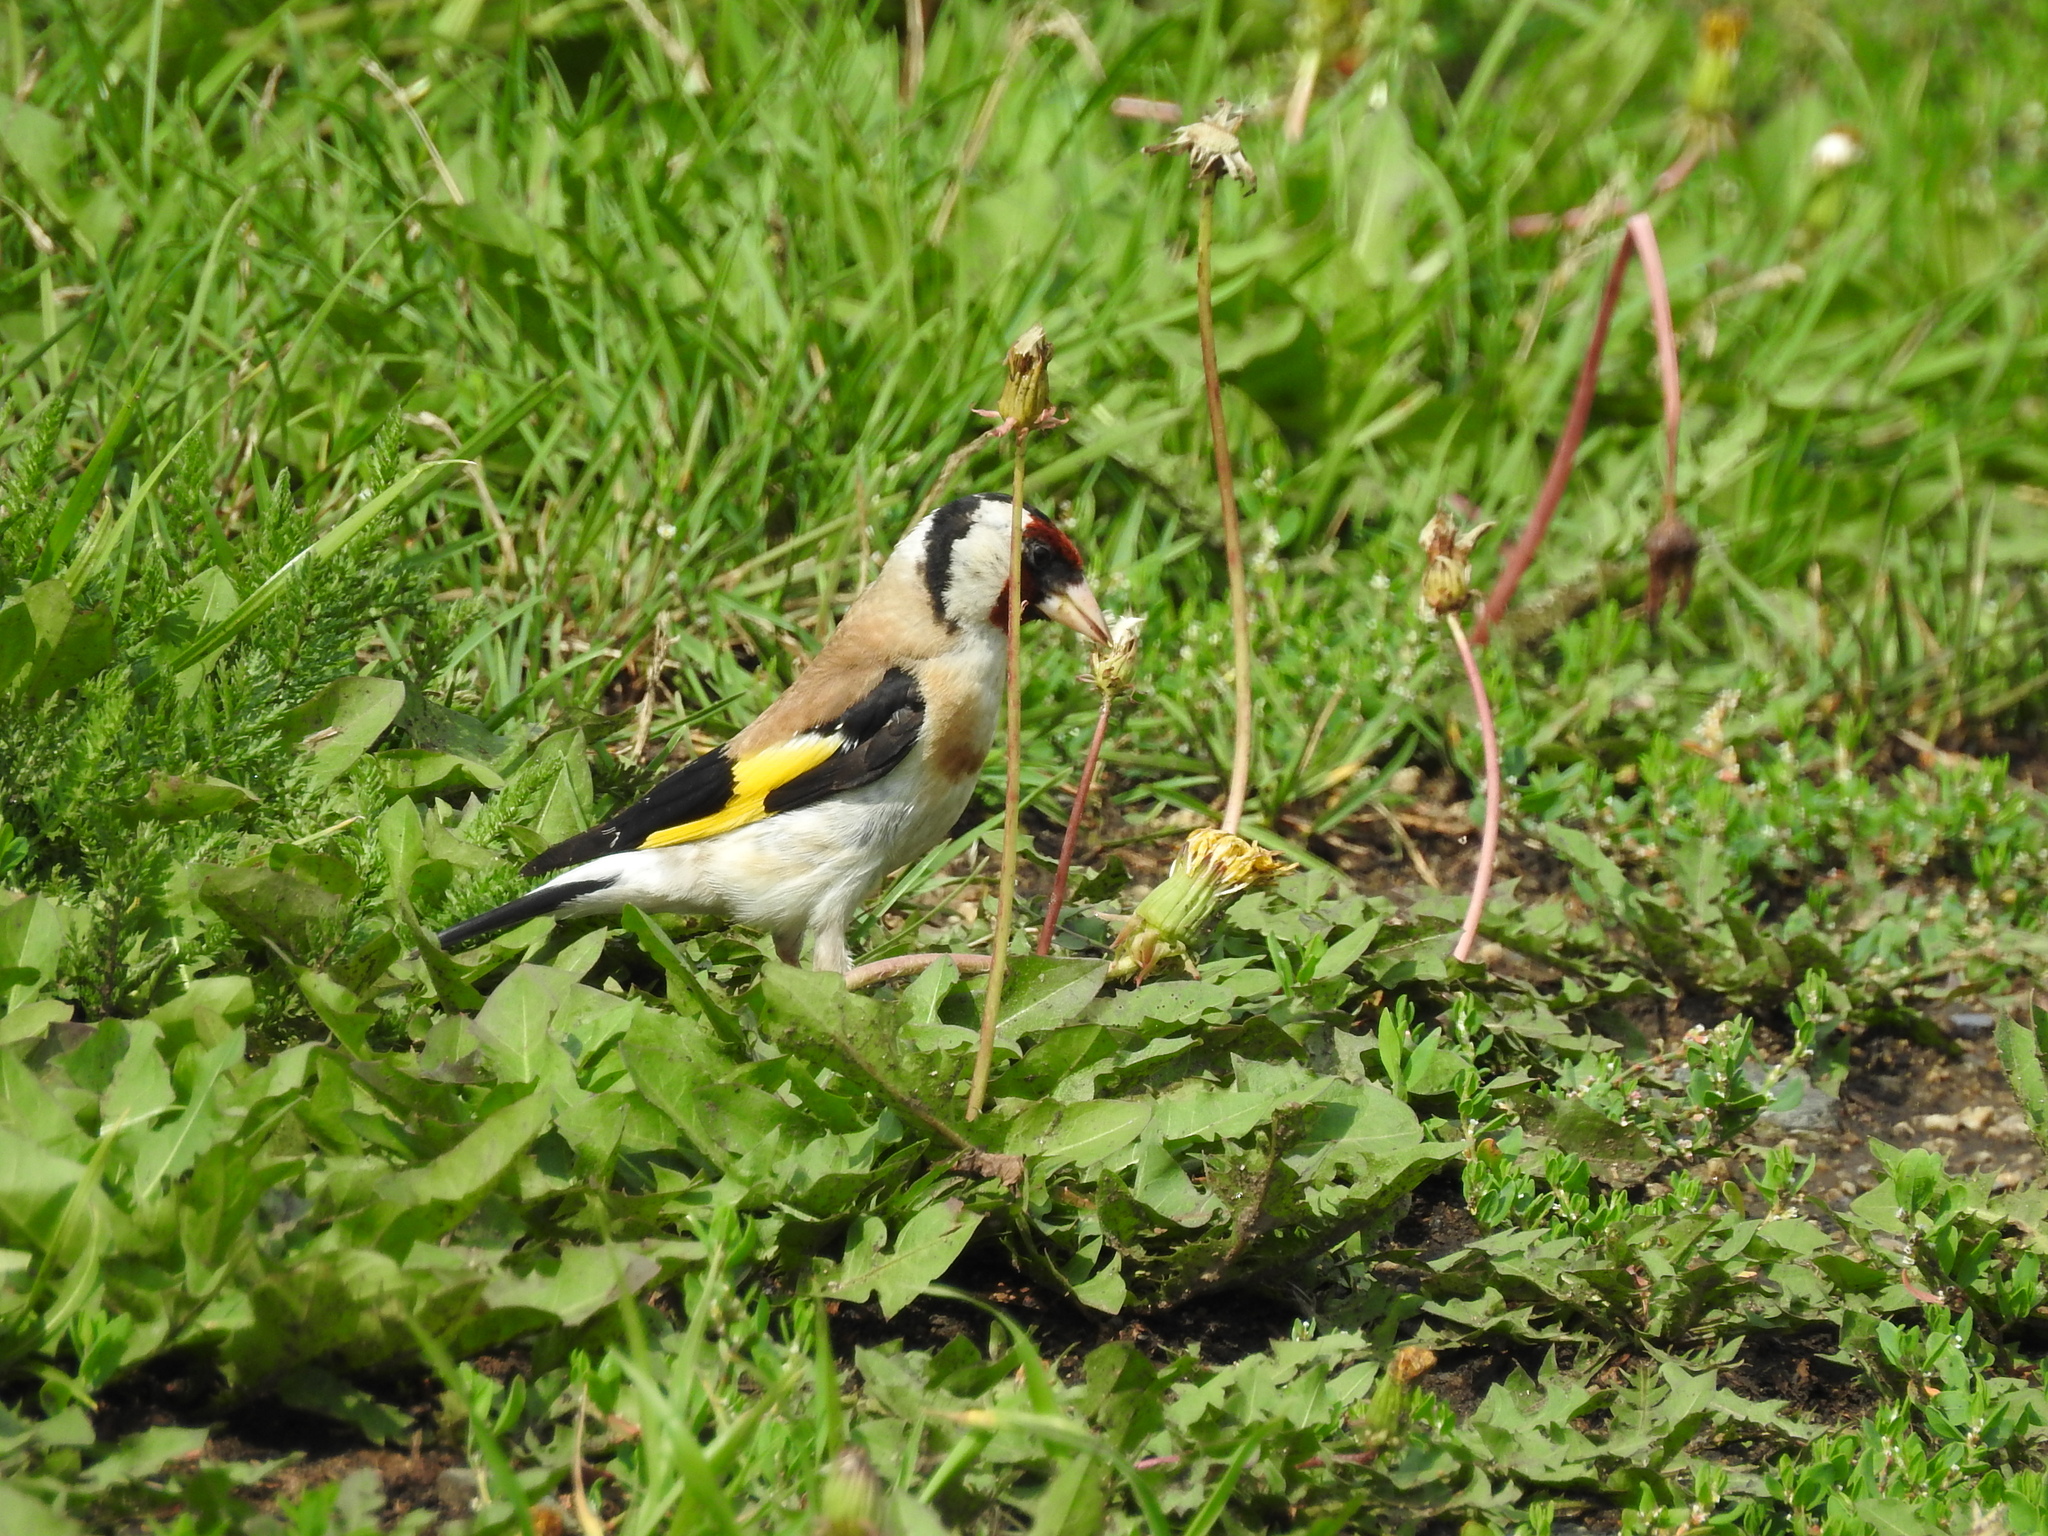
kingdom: Animalia
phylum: Chordata
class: Aves
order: Passeriformes
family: Fringillidae
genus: Carduelis
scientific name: Carduelis carduelis
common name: European goldfinch
